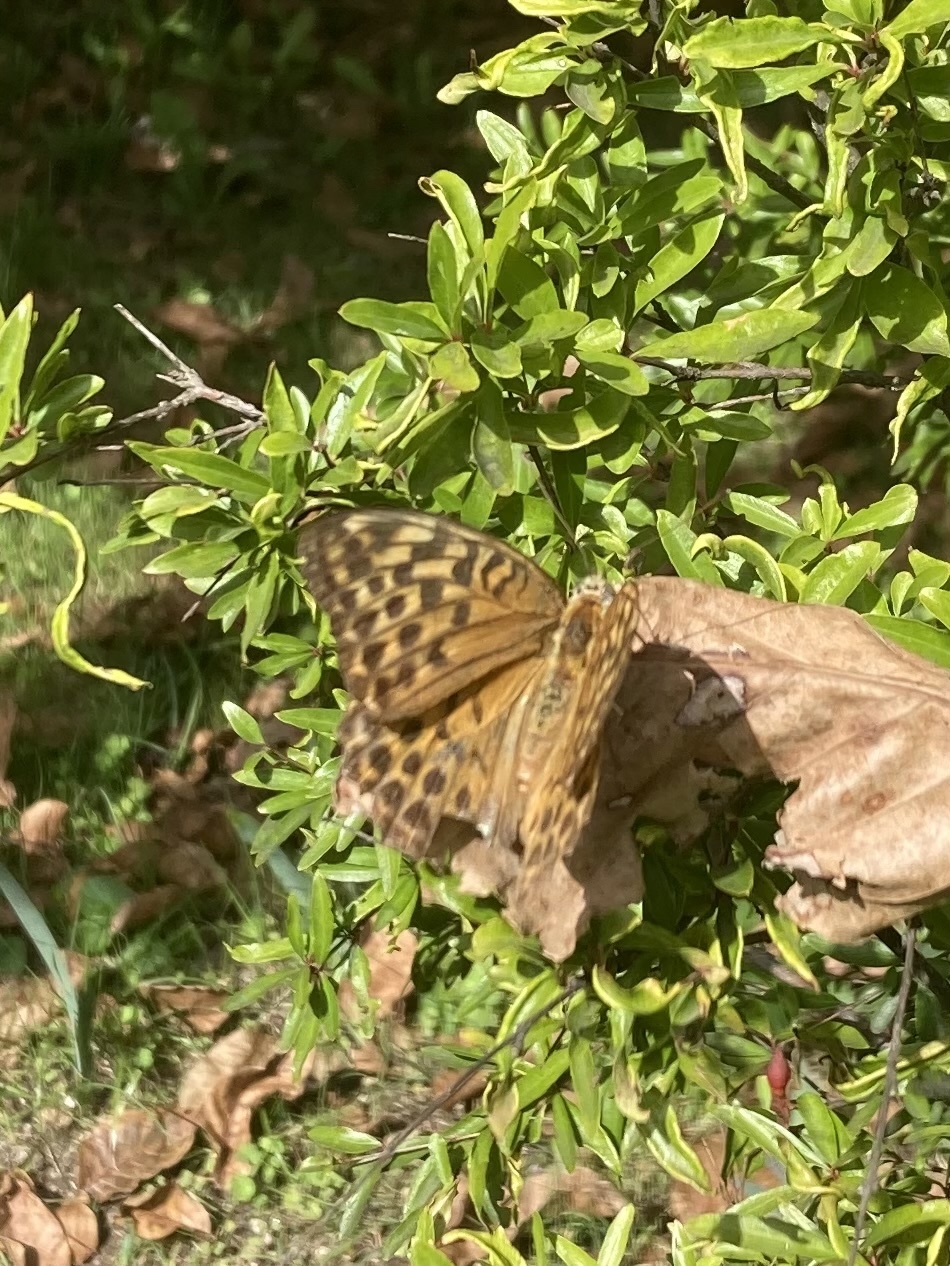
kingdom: Animalia
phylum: Arthropoda
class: Insecta
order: Lepidoptera
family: Nymphalidae
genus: Argynnis
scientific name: Argynnis paphia
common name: Silver-washed fritillary
